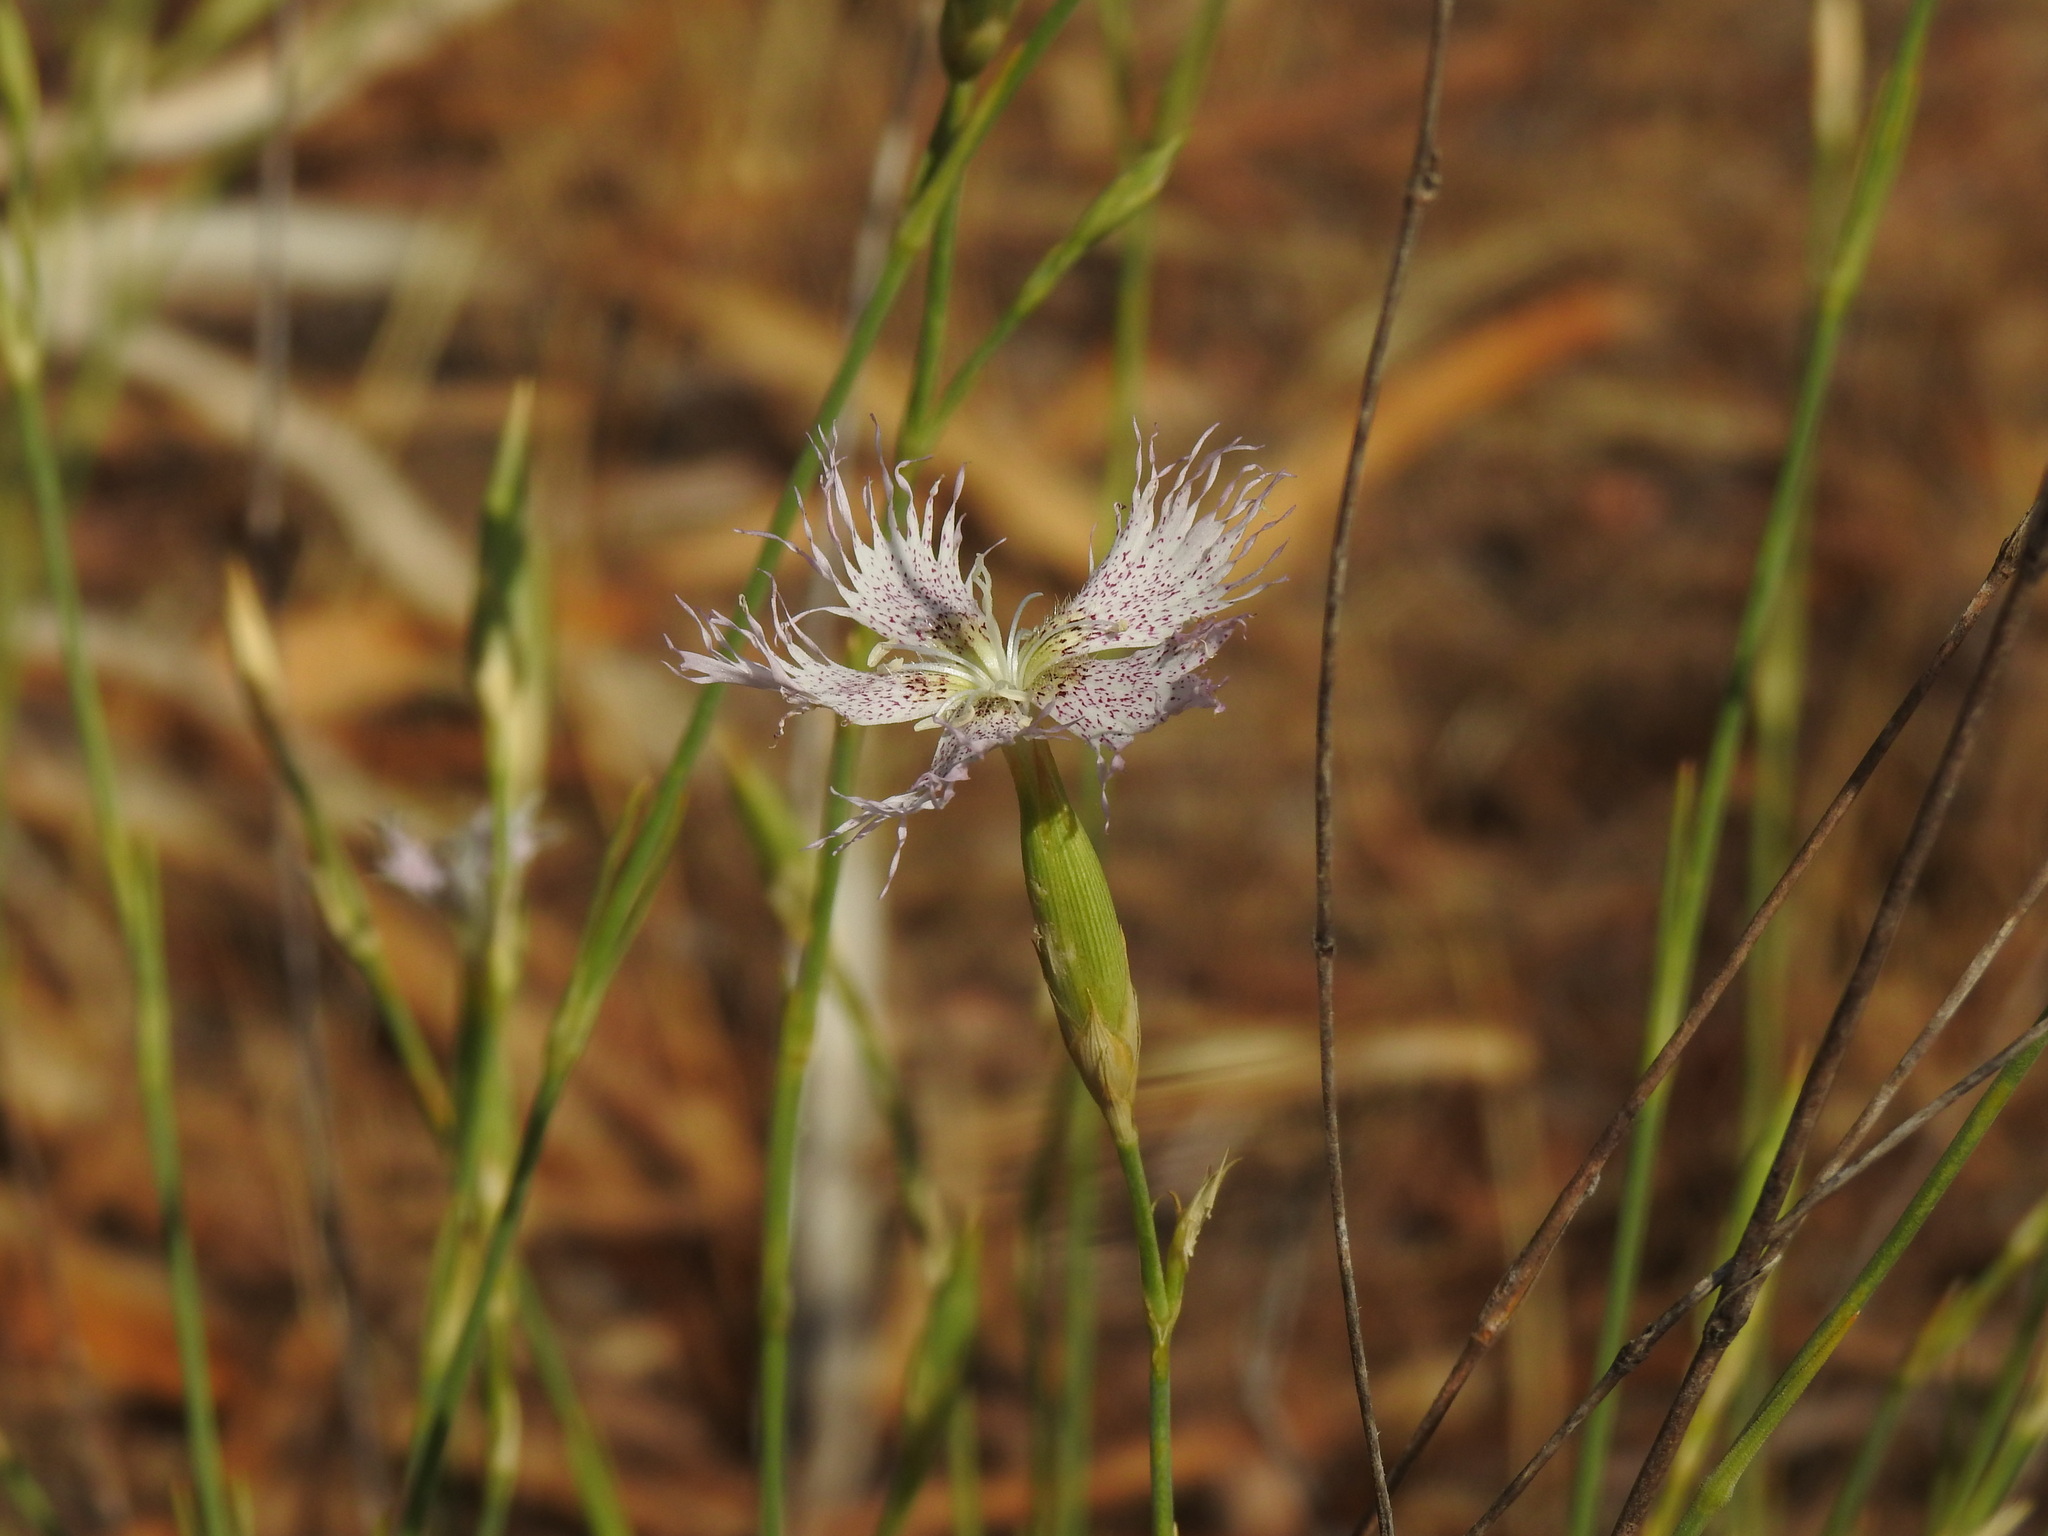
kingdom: Plantae
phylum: Tracheophyta
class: Magnoliopsida
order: Caryophyllales
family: Caryophyllaceae
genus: Dianthus
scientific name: Dianthus broteri
